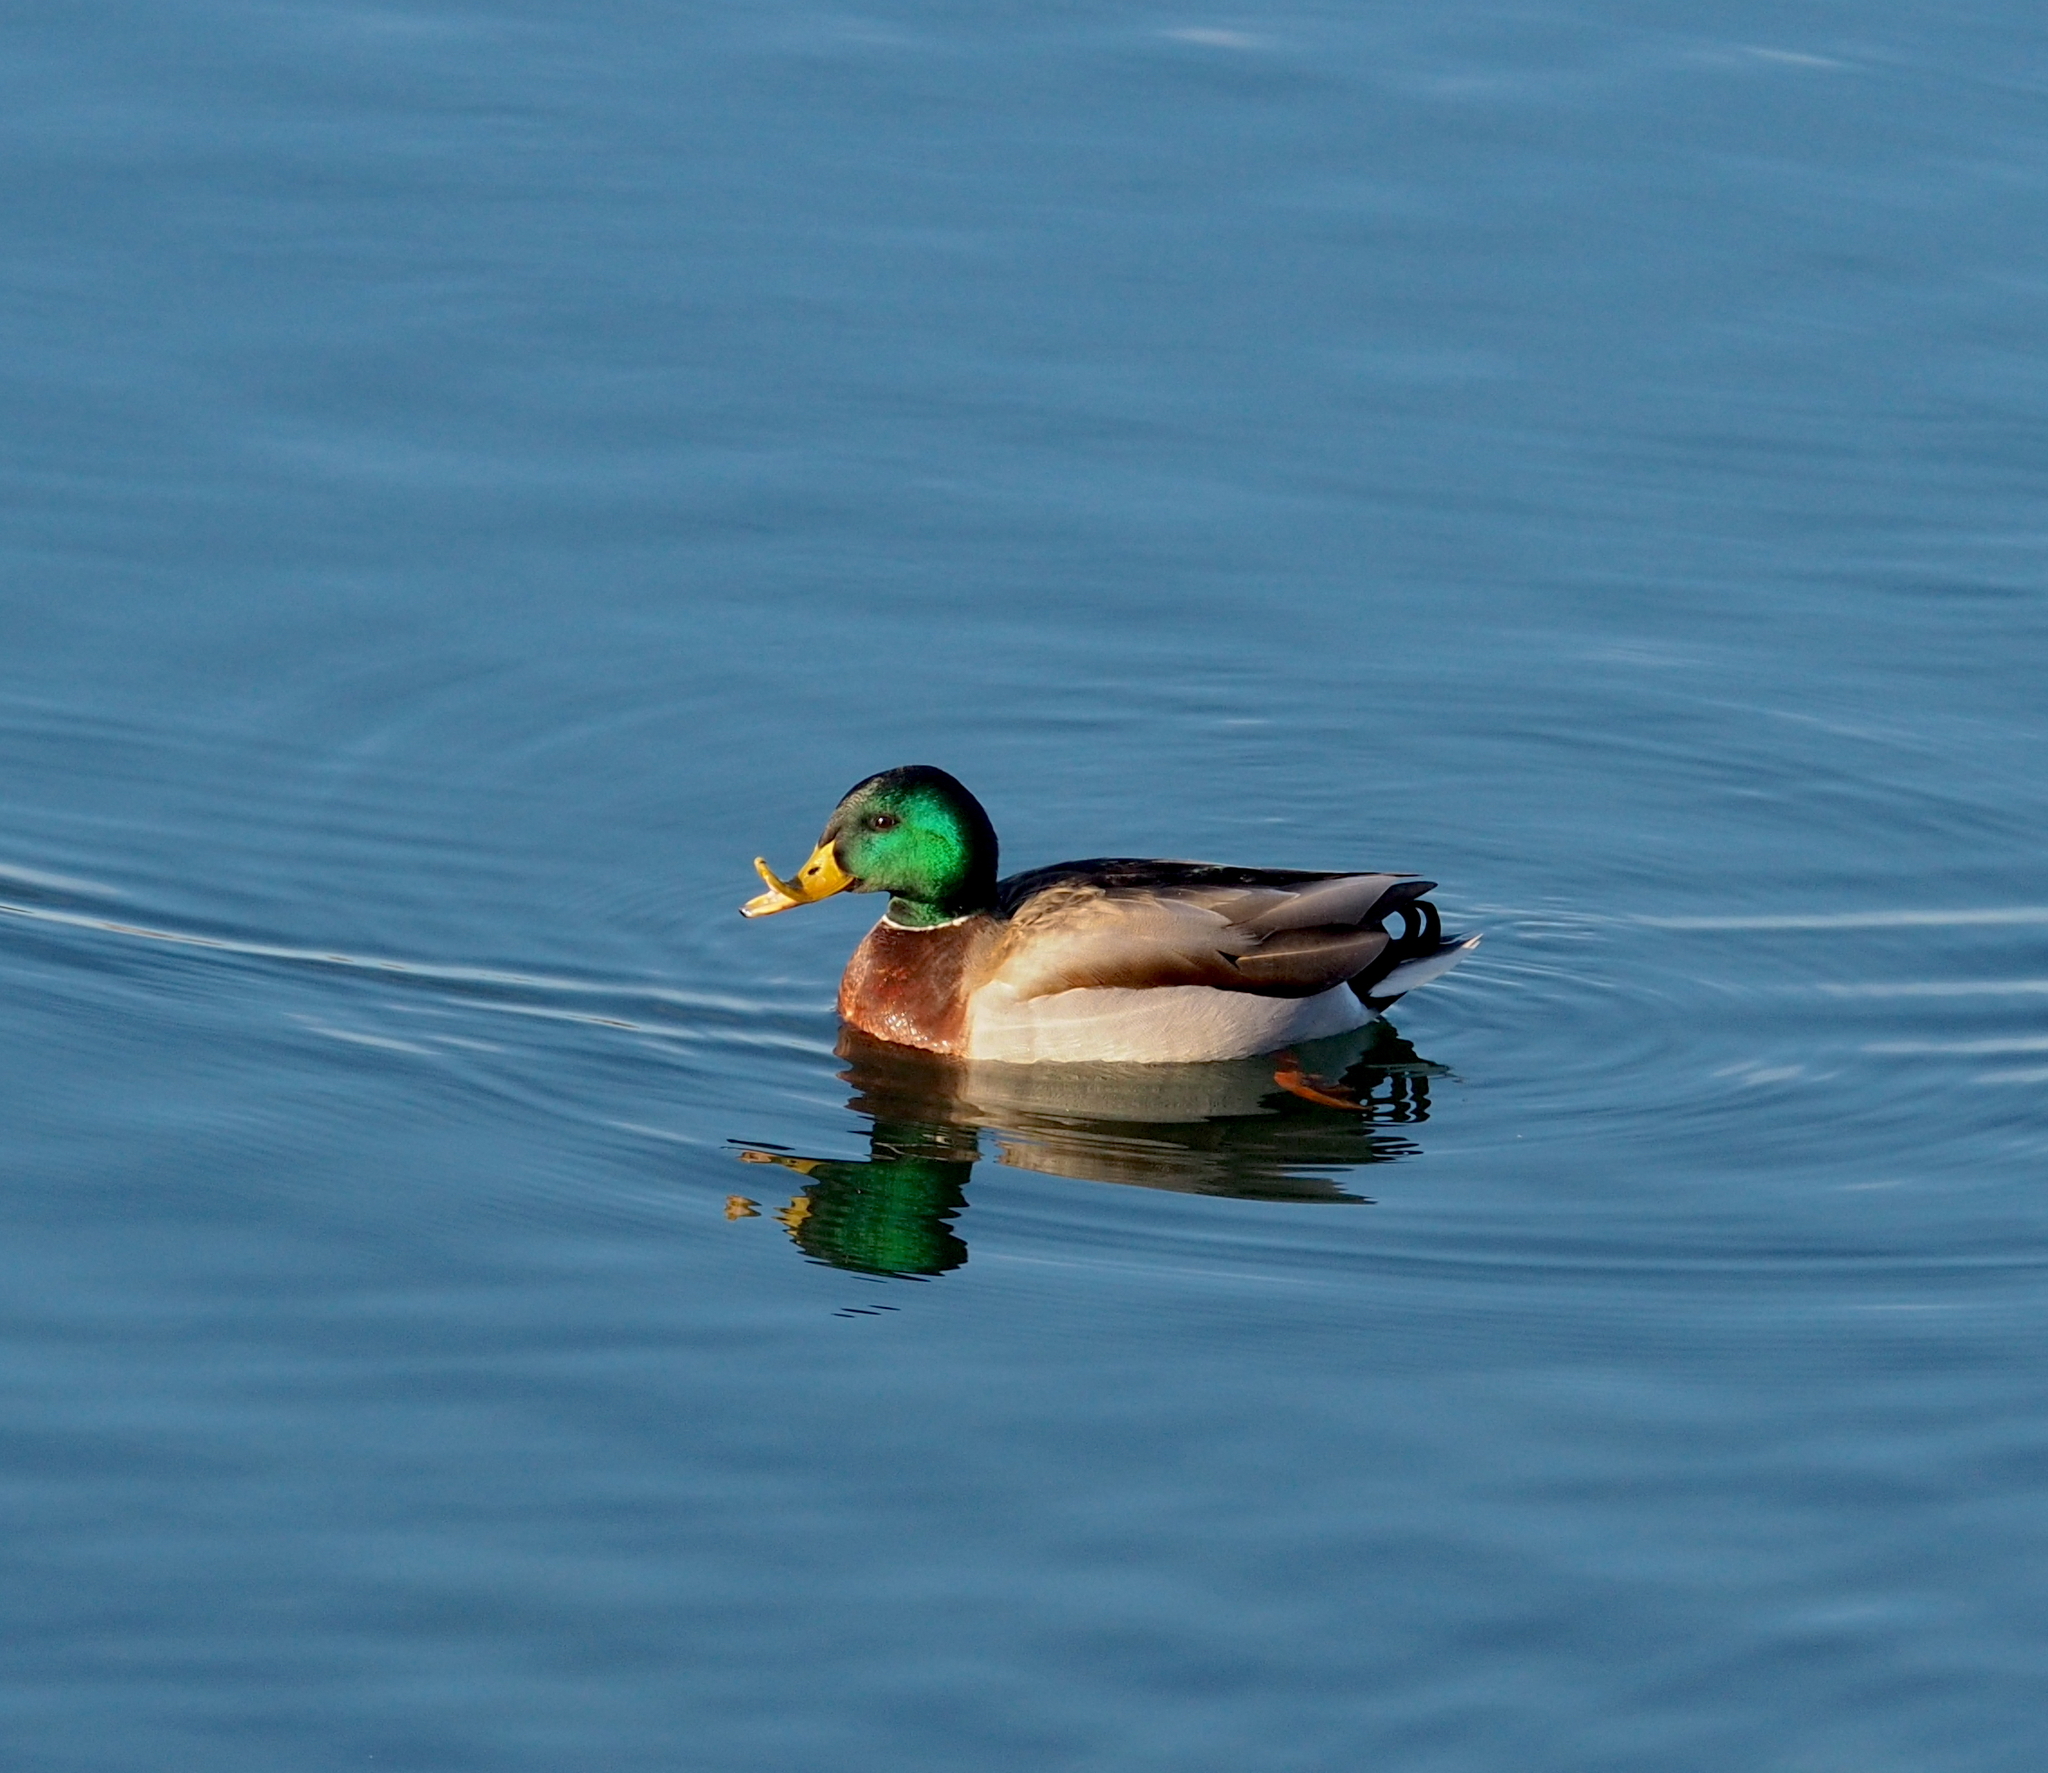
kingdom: Animalia
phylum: Chordata
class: Aves
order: Anseriformes
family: Anatidae
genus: Anas
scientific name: Anas platyrhynchos
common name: Mallard
